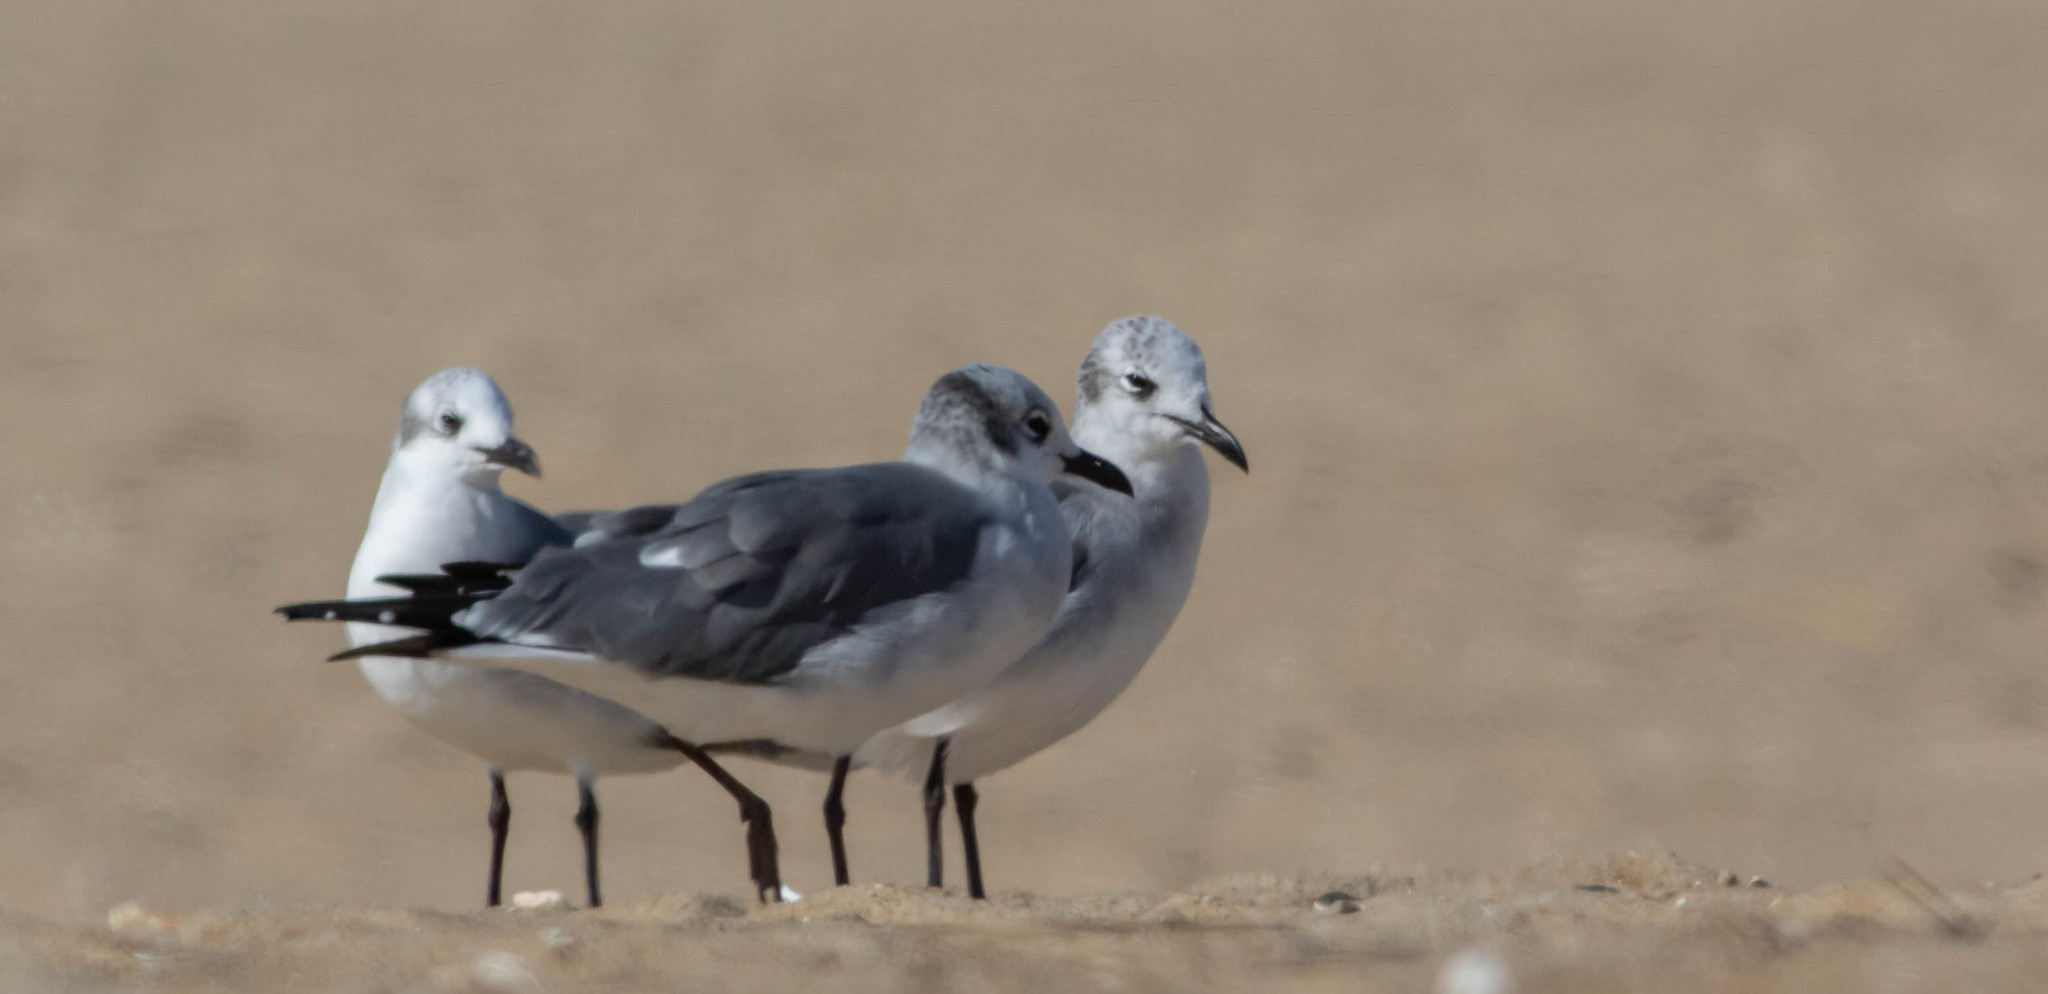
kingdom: Animalia
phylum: Chordata
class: Aves
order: Charadriiformes
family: Laridae
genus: Leucophaeus
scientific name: Leucophaeus atricilla
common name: Laughing gull
